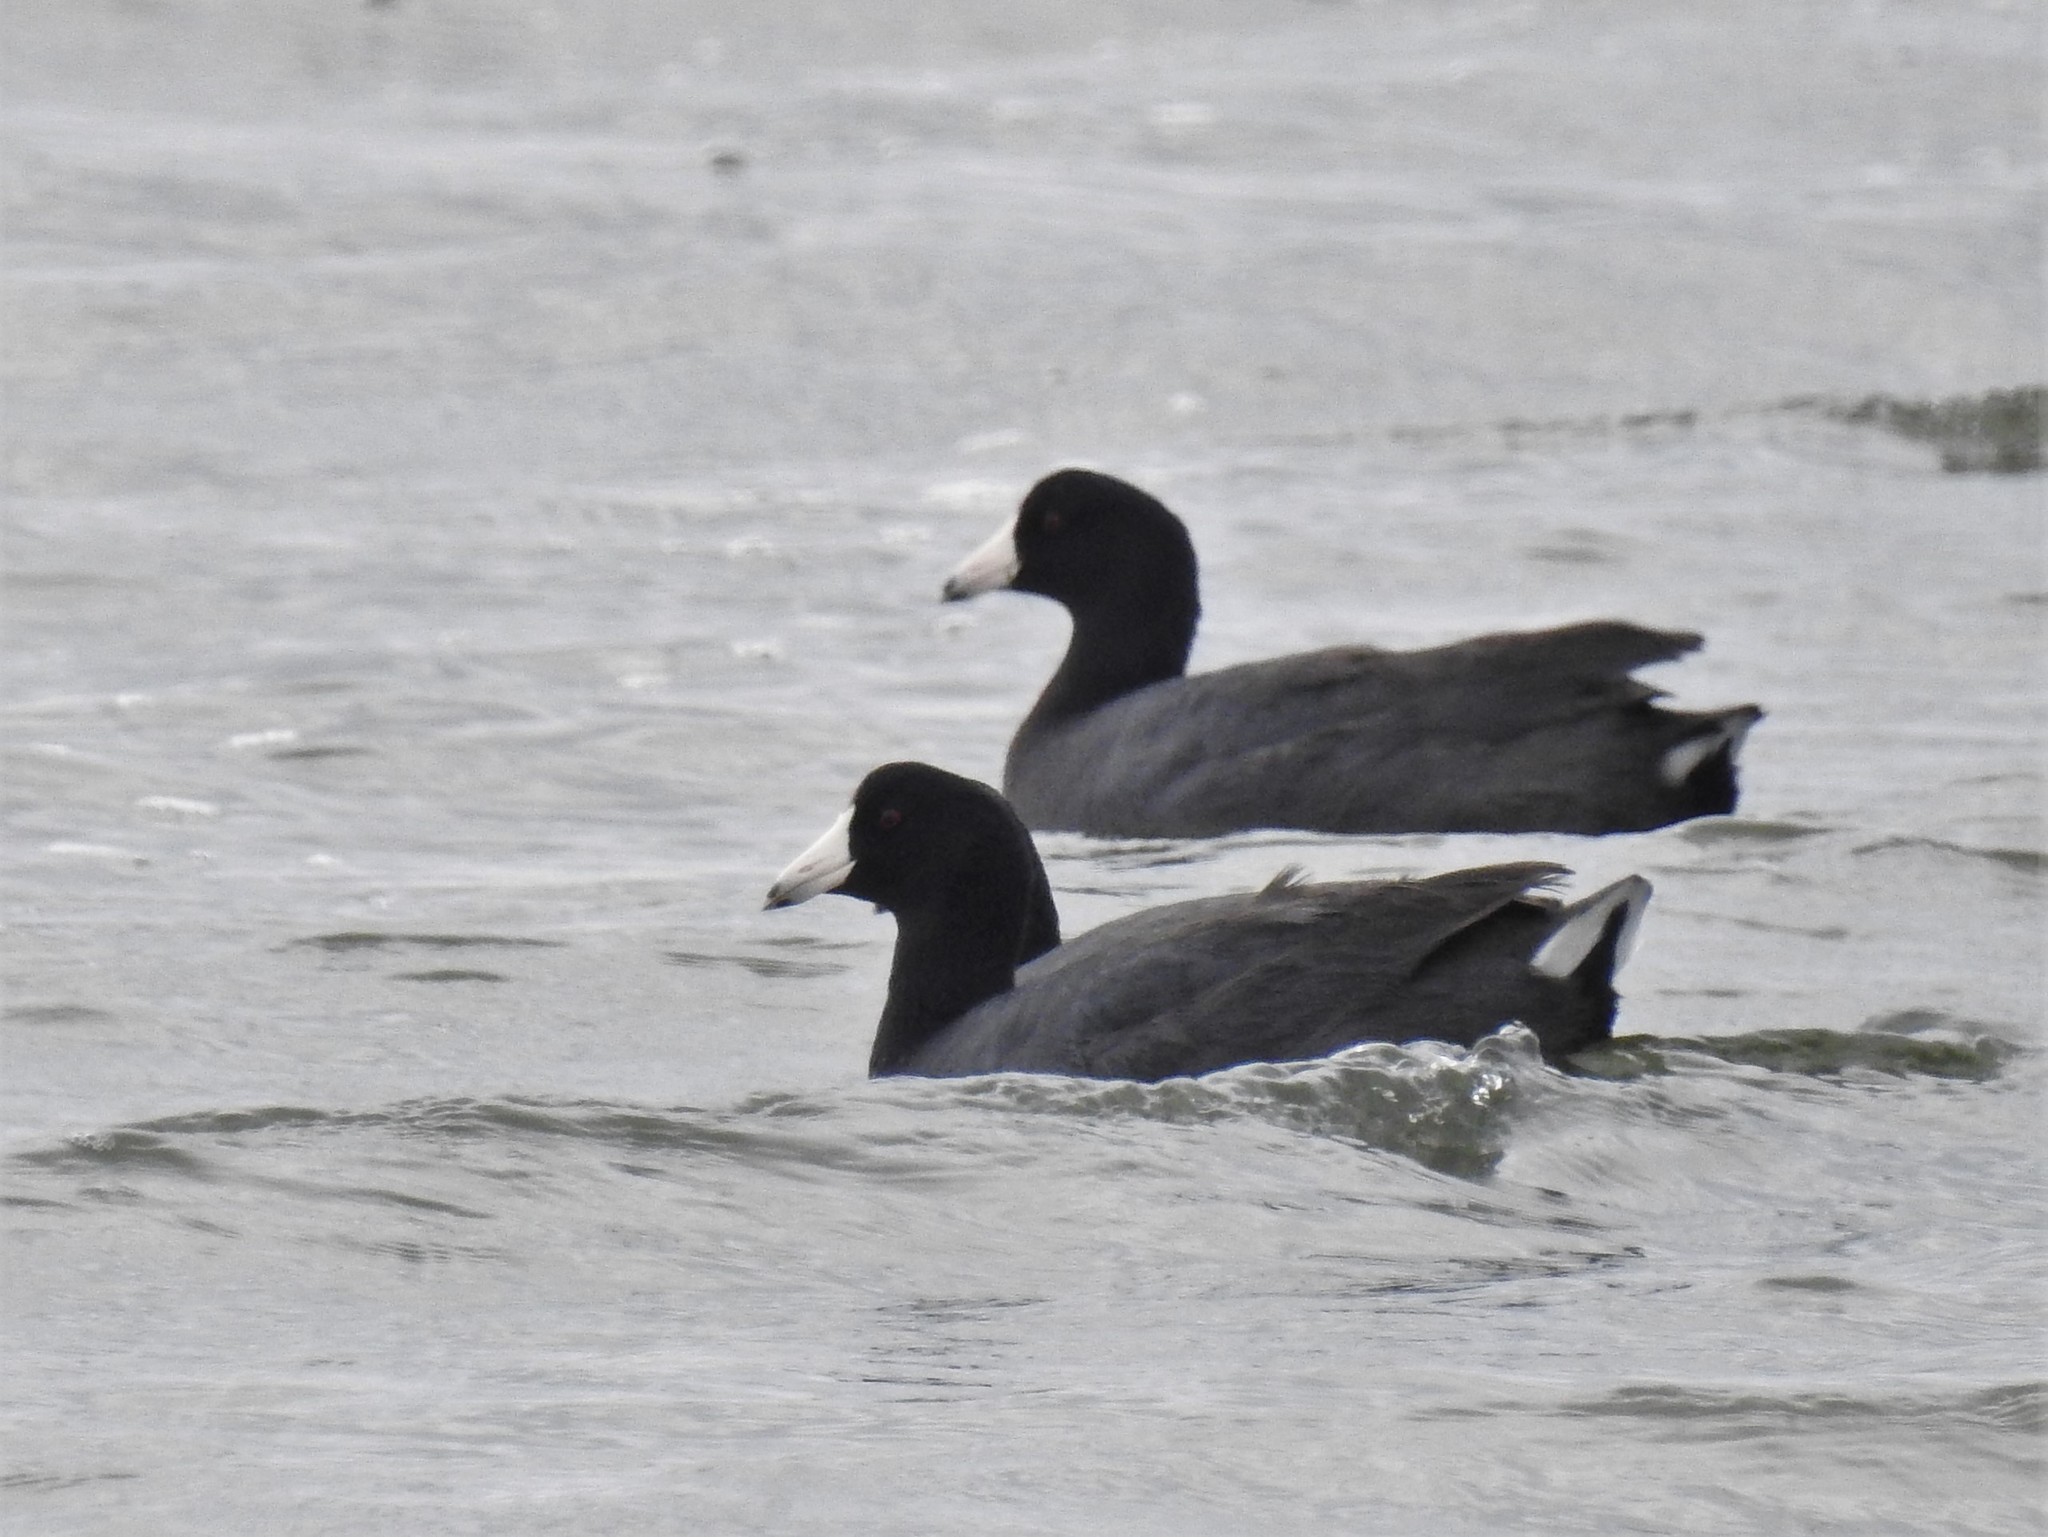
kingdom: Animalia
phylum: Chordata
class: Aves
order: Gruiformes
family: Rallidae
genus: Fulica
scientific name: Fulica americana
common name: American coot
